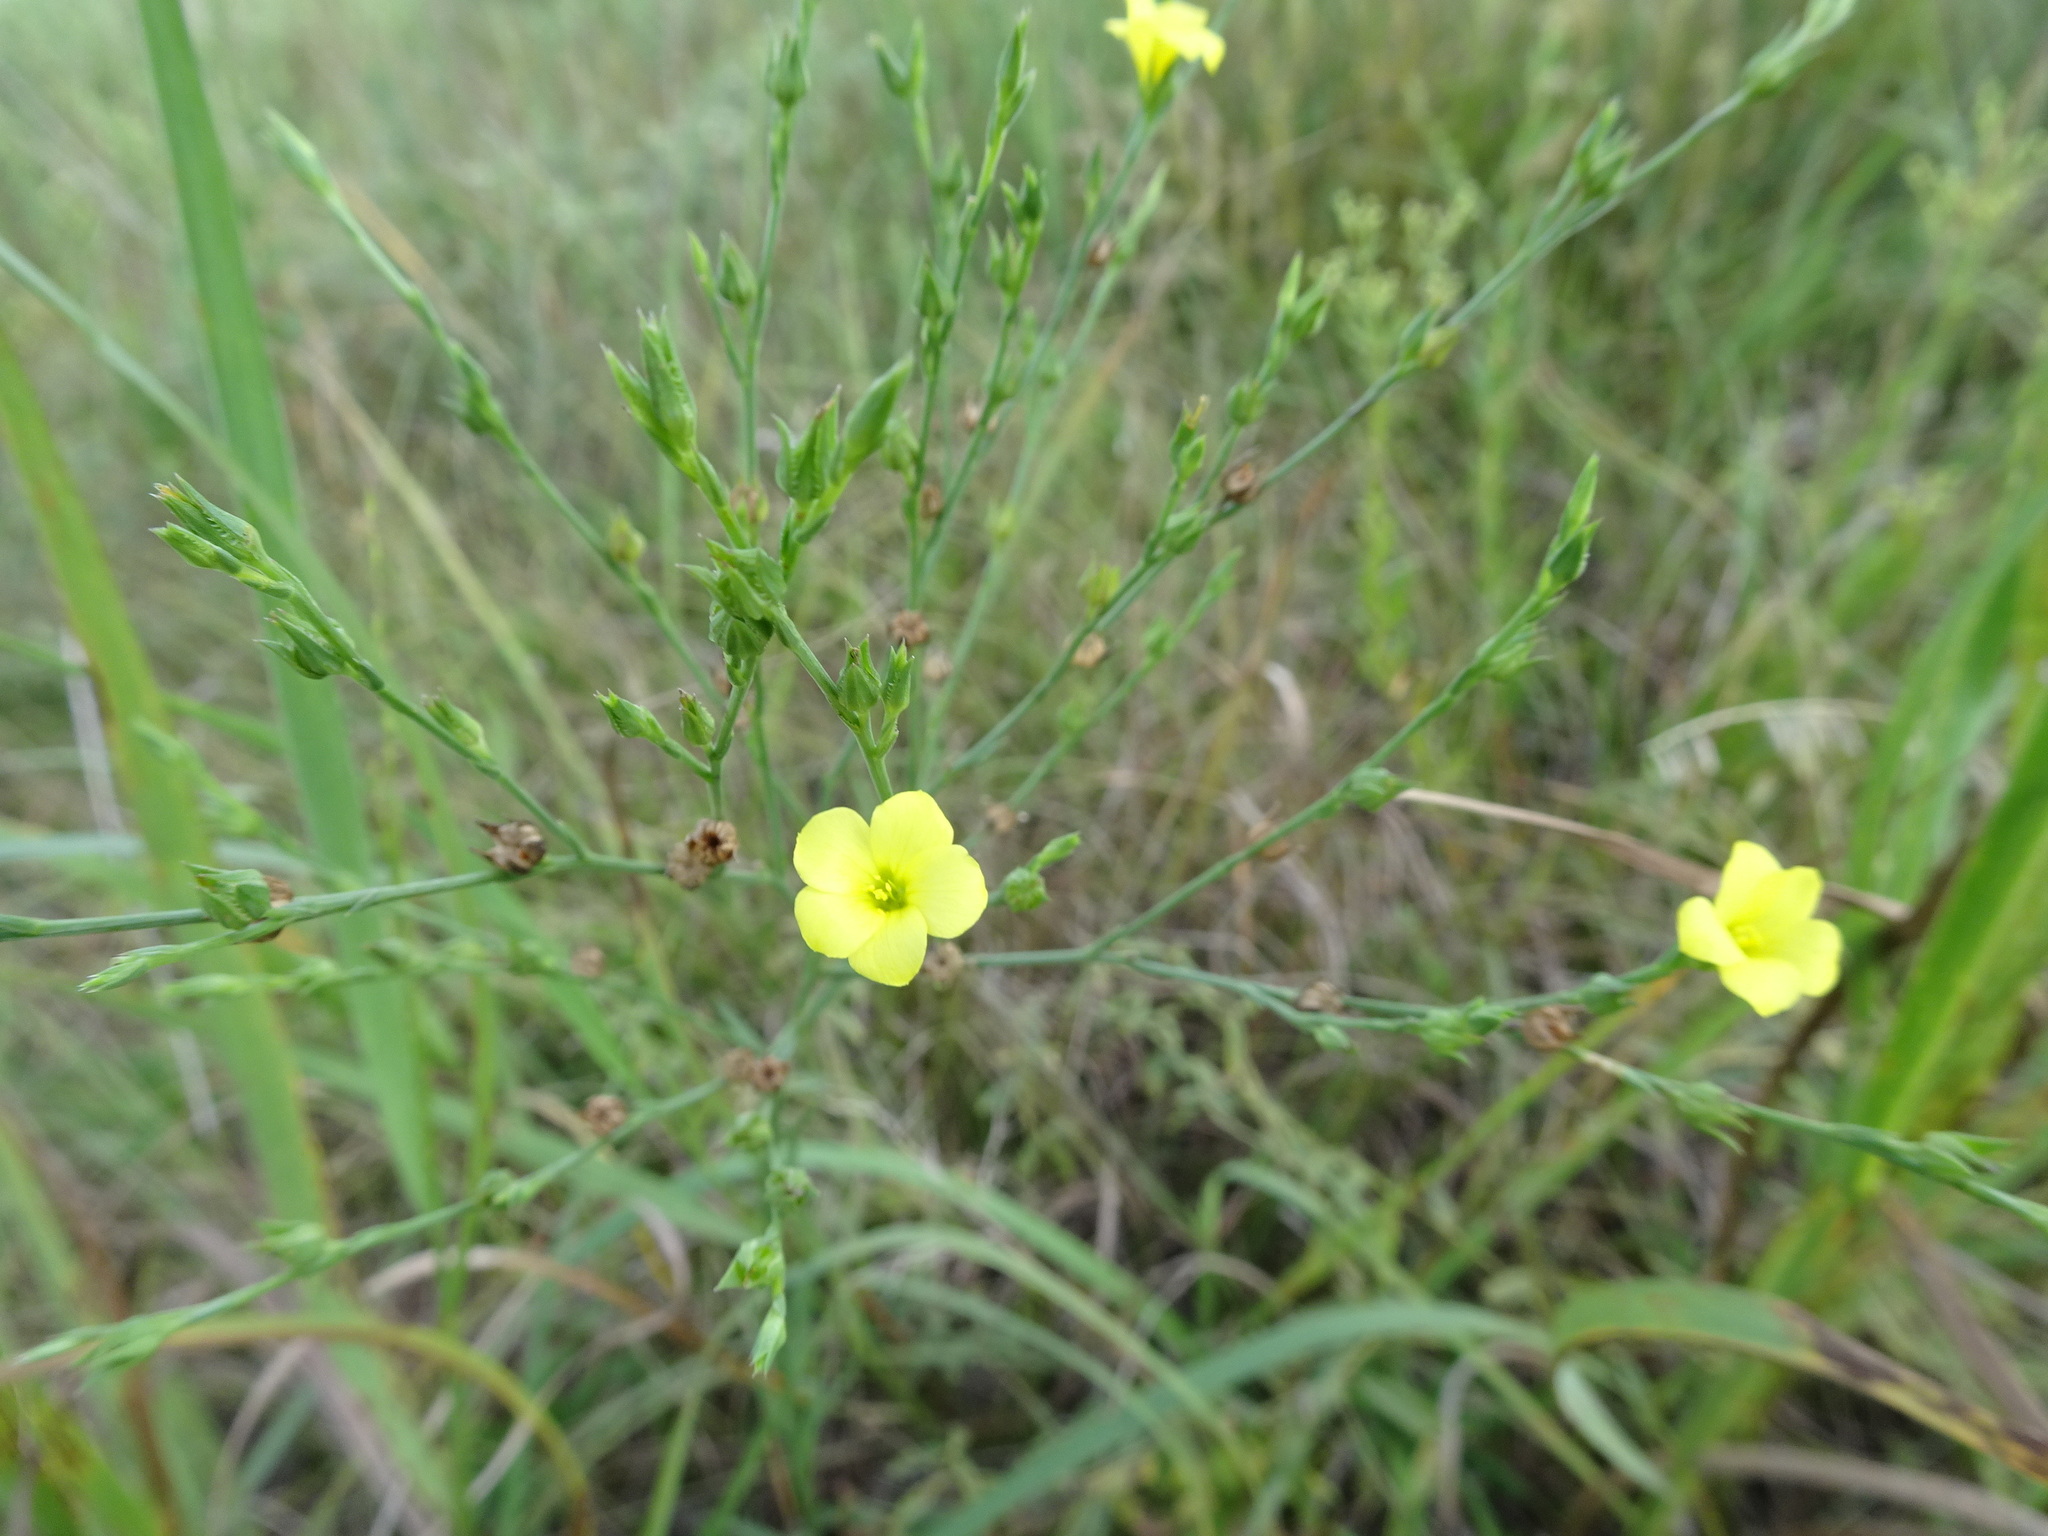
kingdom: Plantae
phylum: Tracheophyta
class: Magnoliopsida
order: Malpighiales
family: Linaceae
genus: Linum
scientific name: Linum sulcatum
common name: Grooved flax
